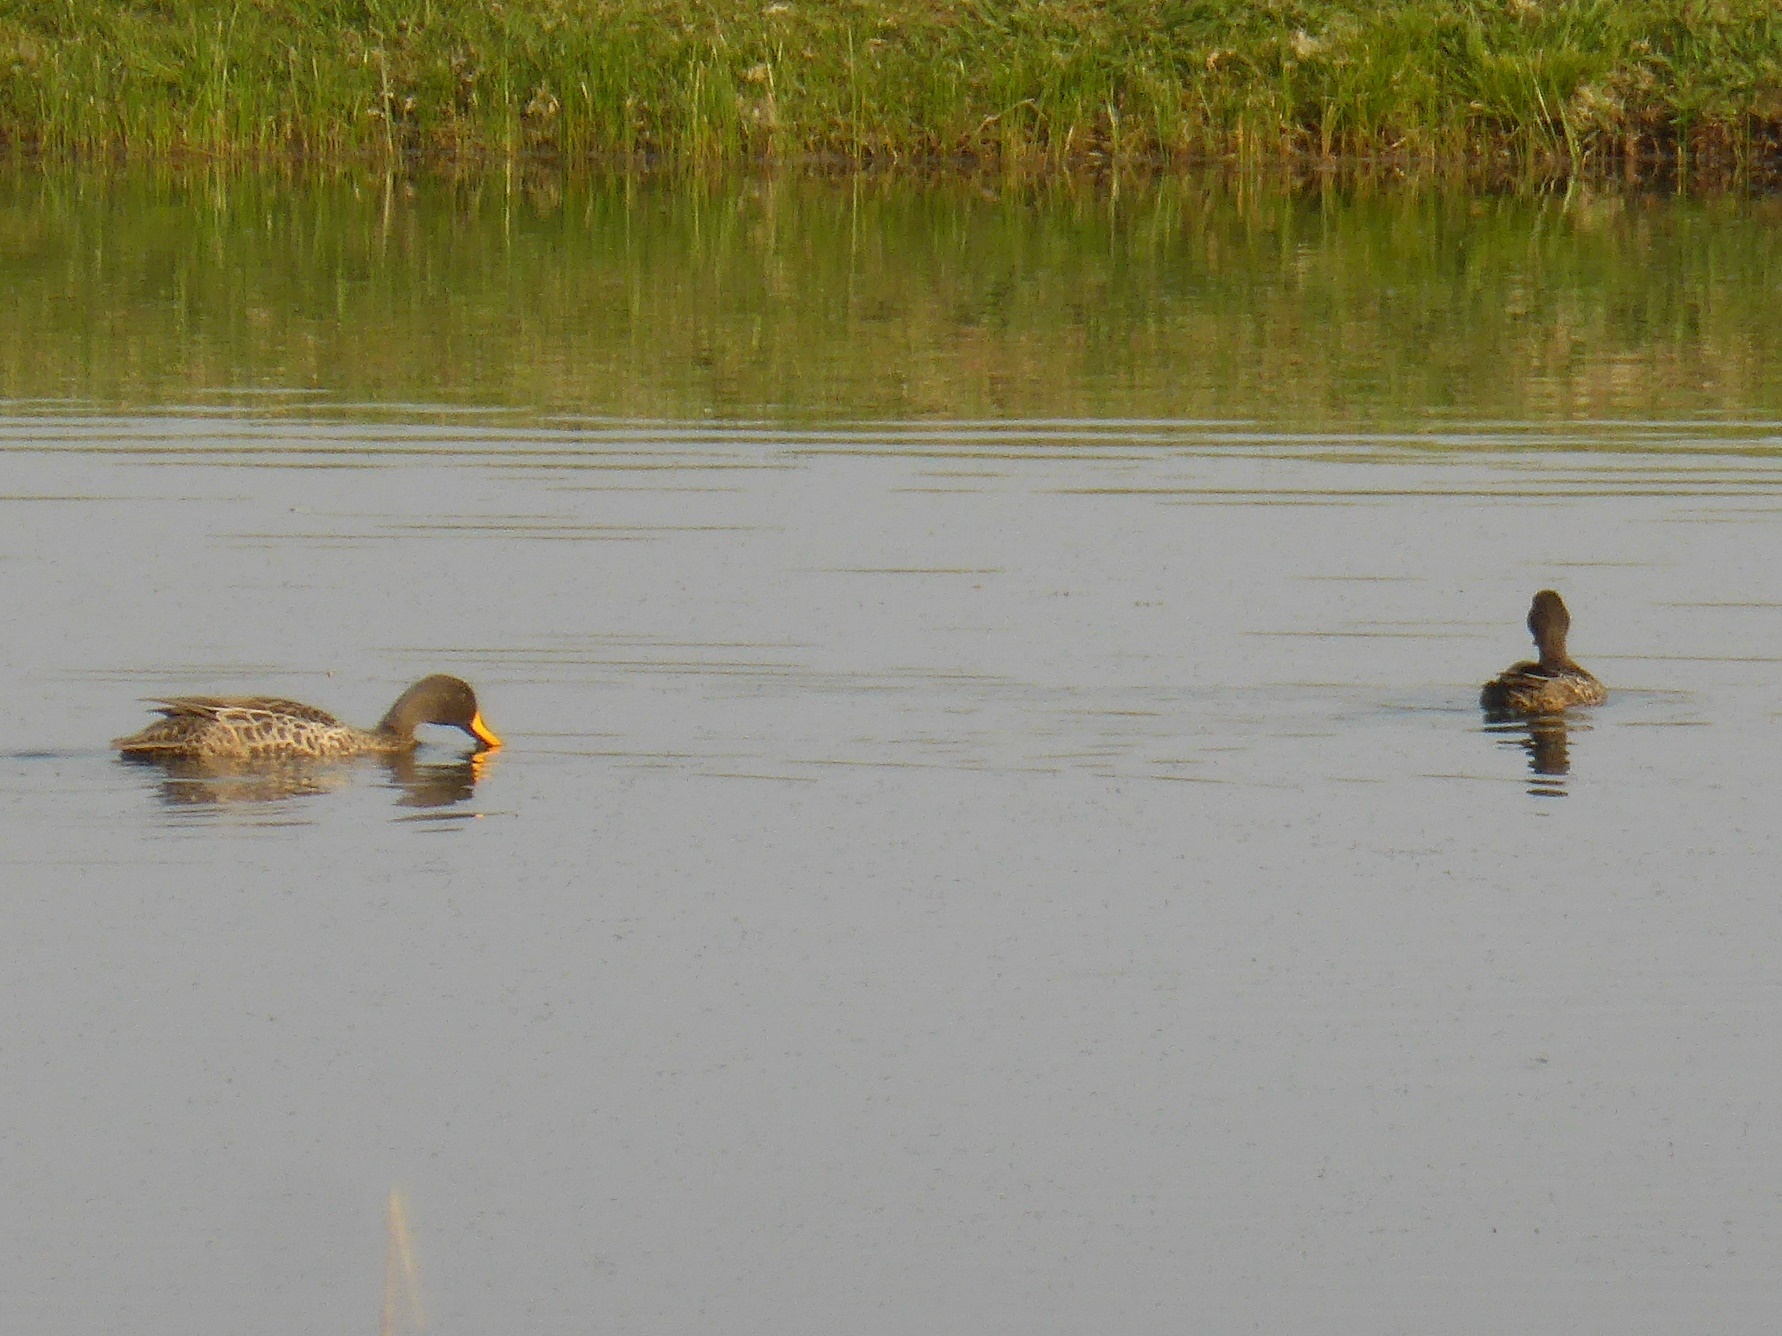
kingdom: Animalia
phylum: Chordata
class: Aves
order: Anseriformes
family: Anatidae
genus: Anas
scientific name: Anas undulata
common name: Yellow-billed duck
